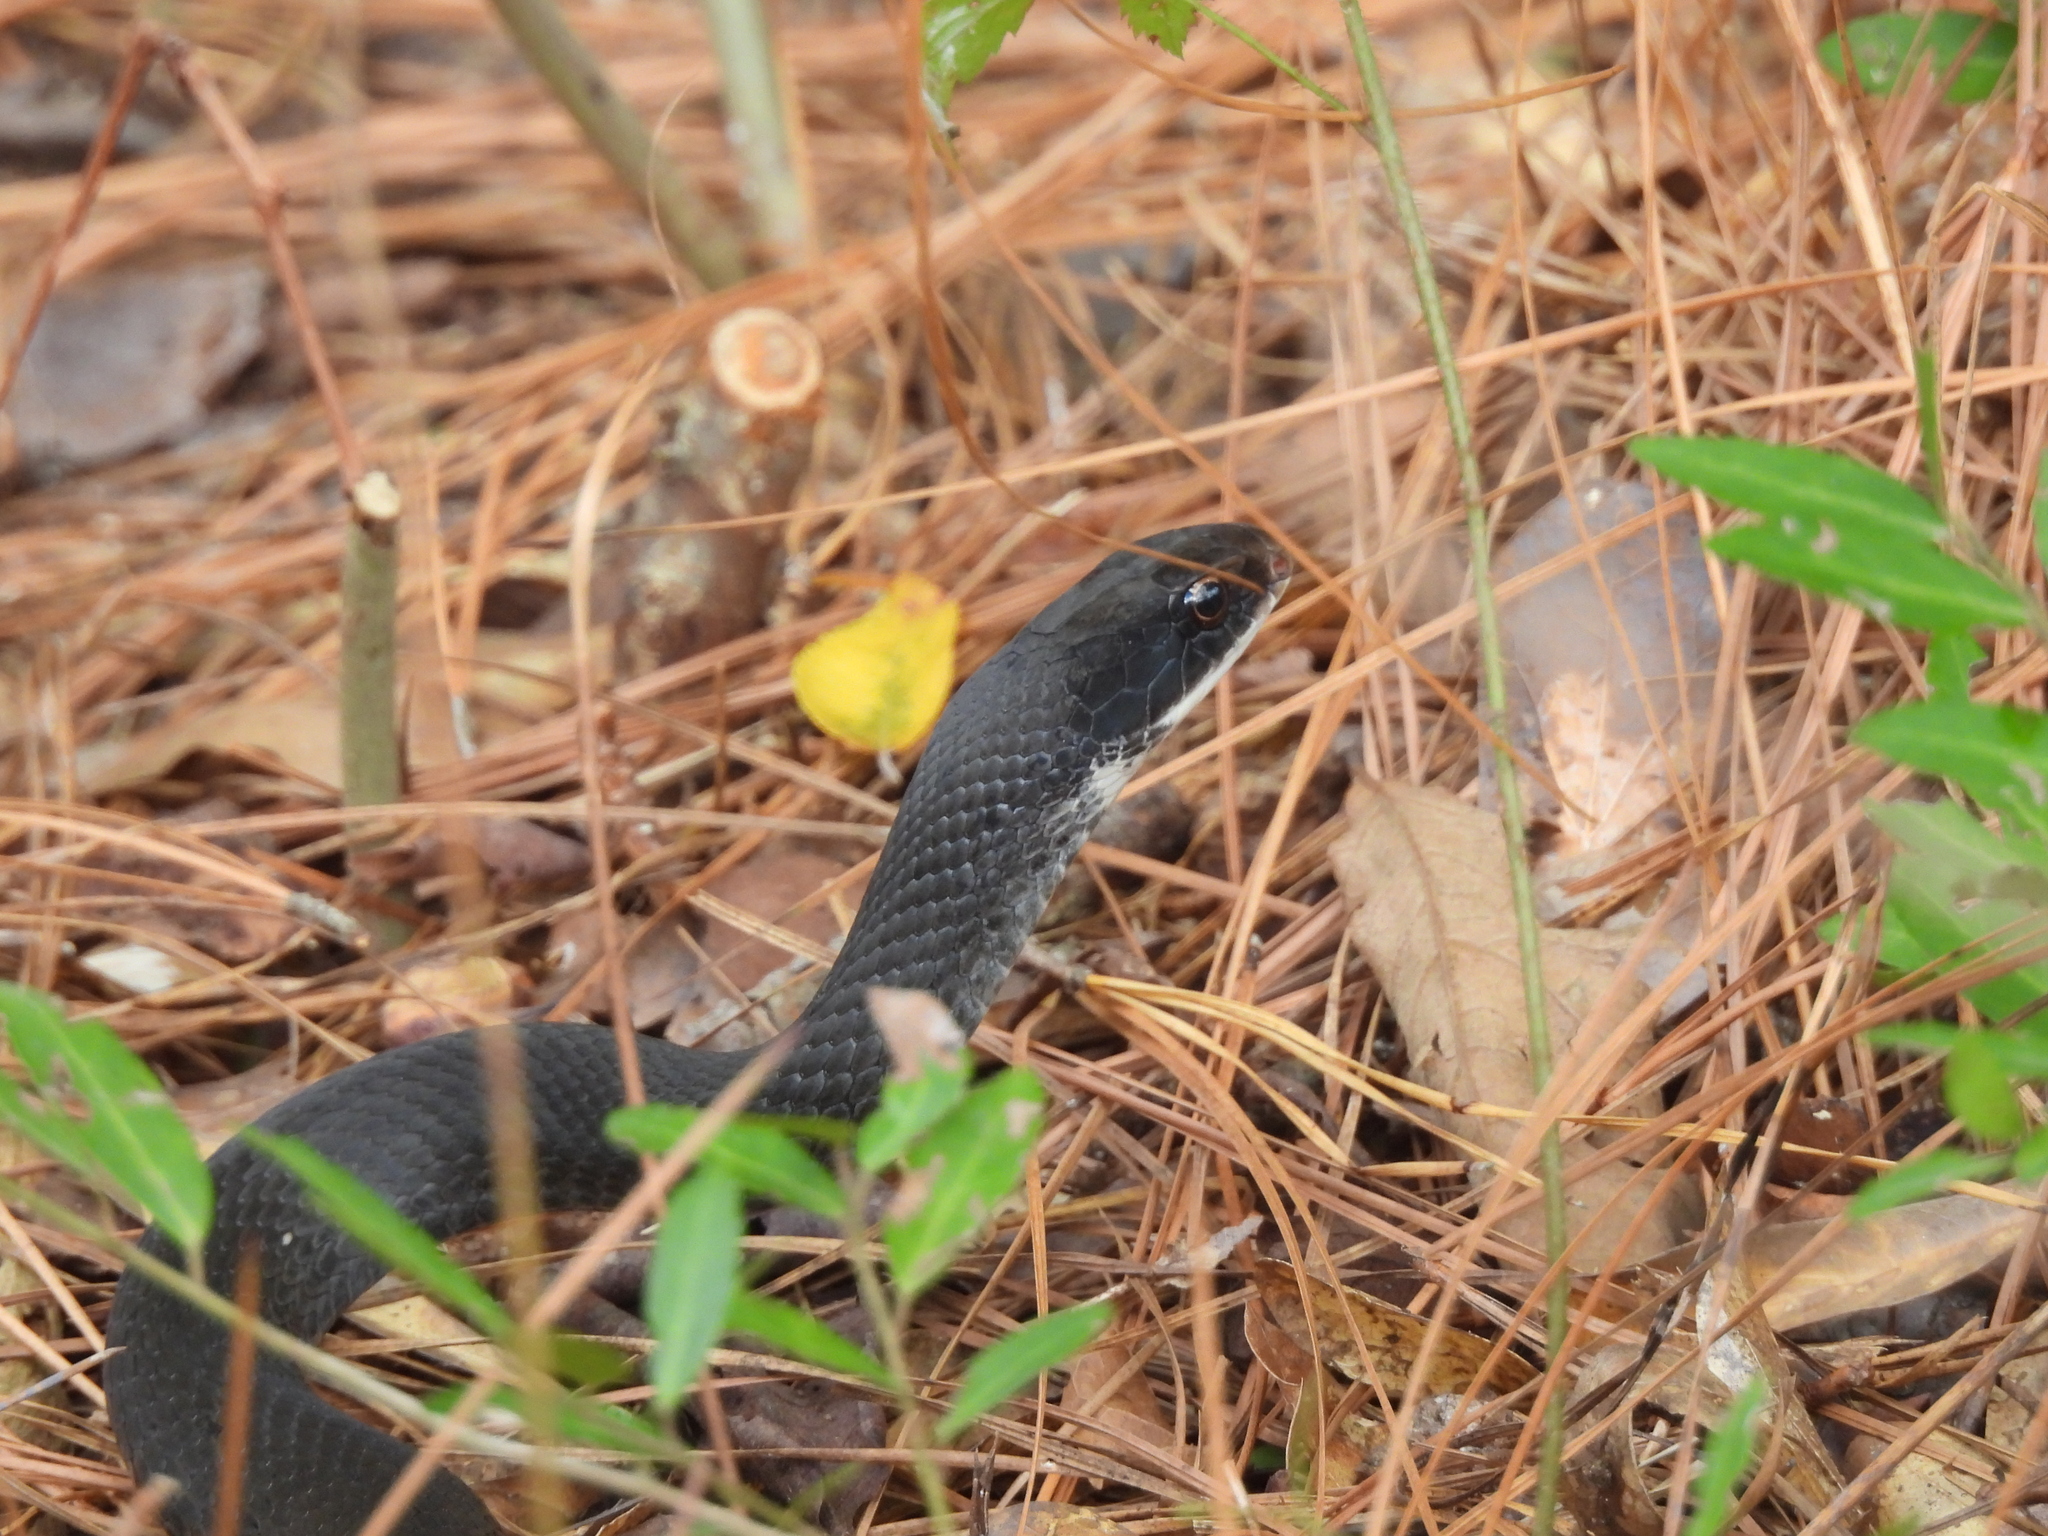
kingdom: Animalia
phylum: Chordata
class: Squamata
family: Colubridae
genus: Coluber
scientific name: Coluber constrictor
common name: Eastern racer
